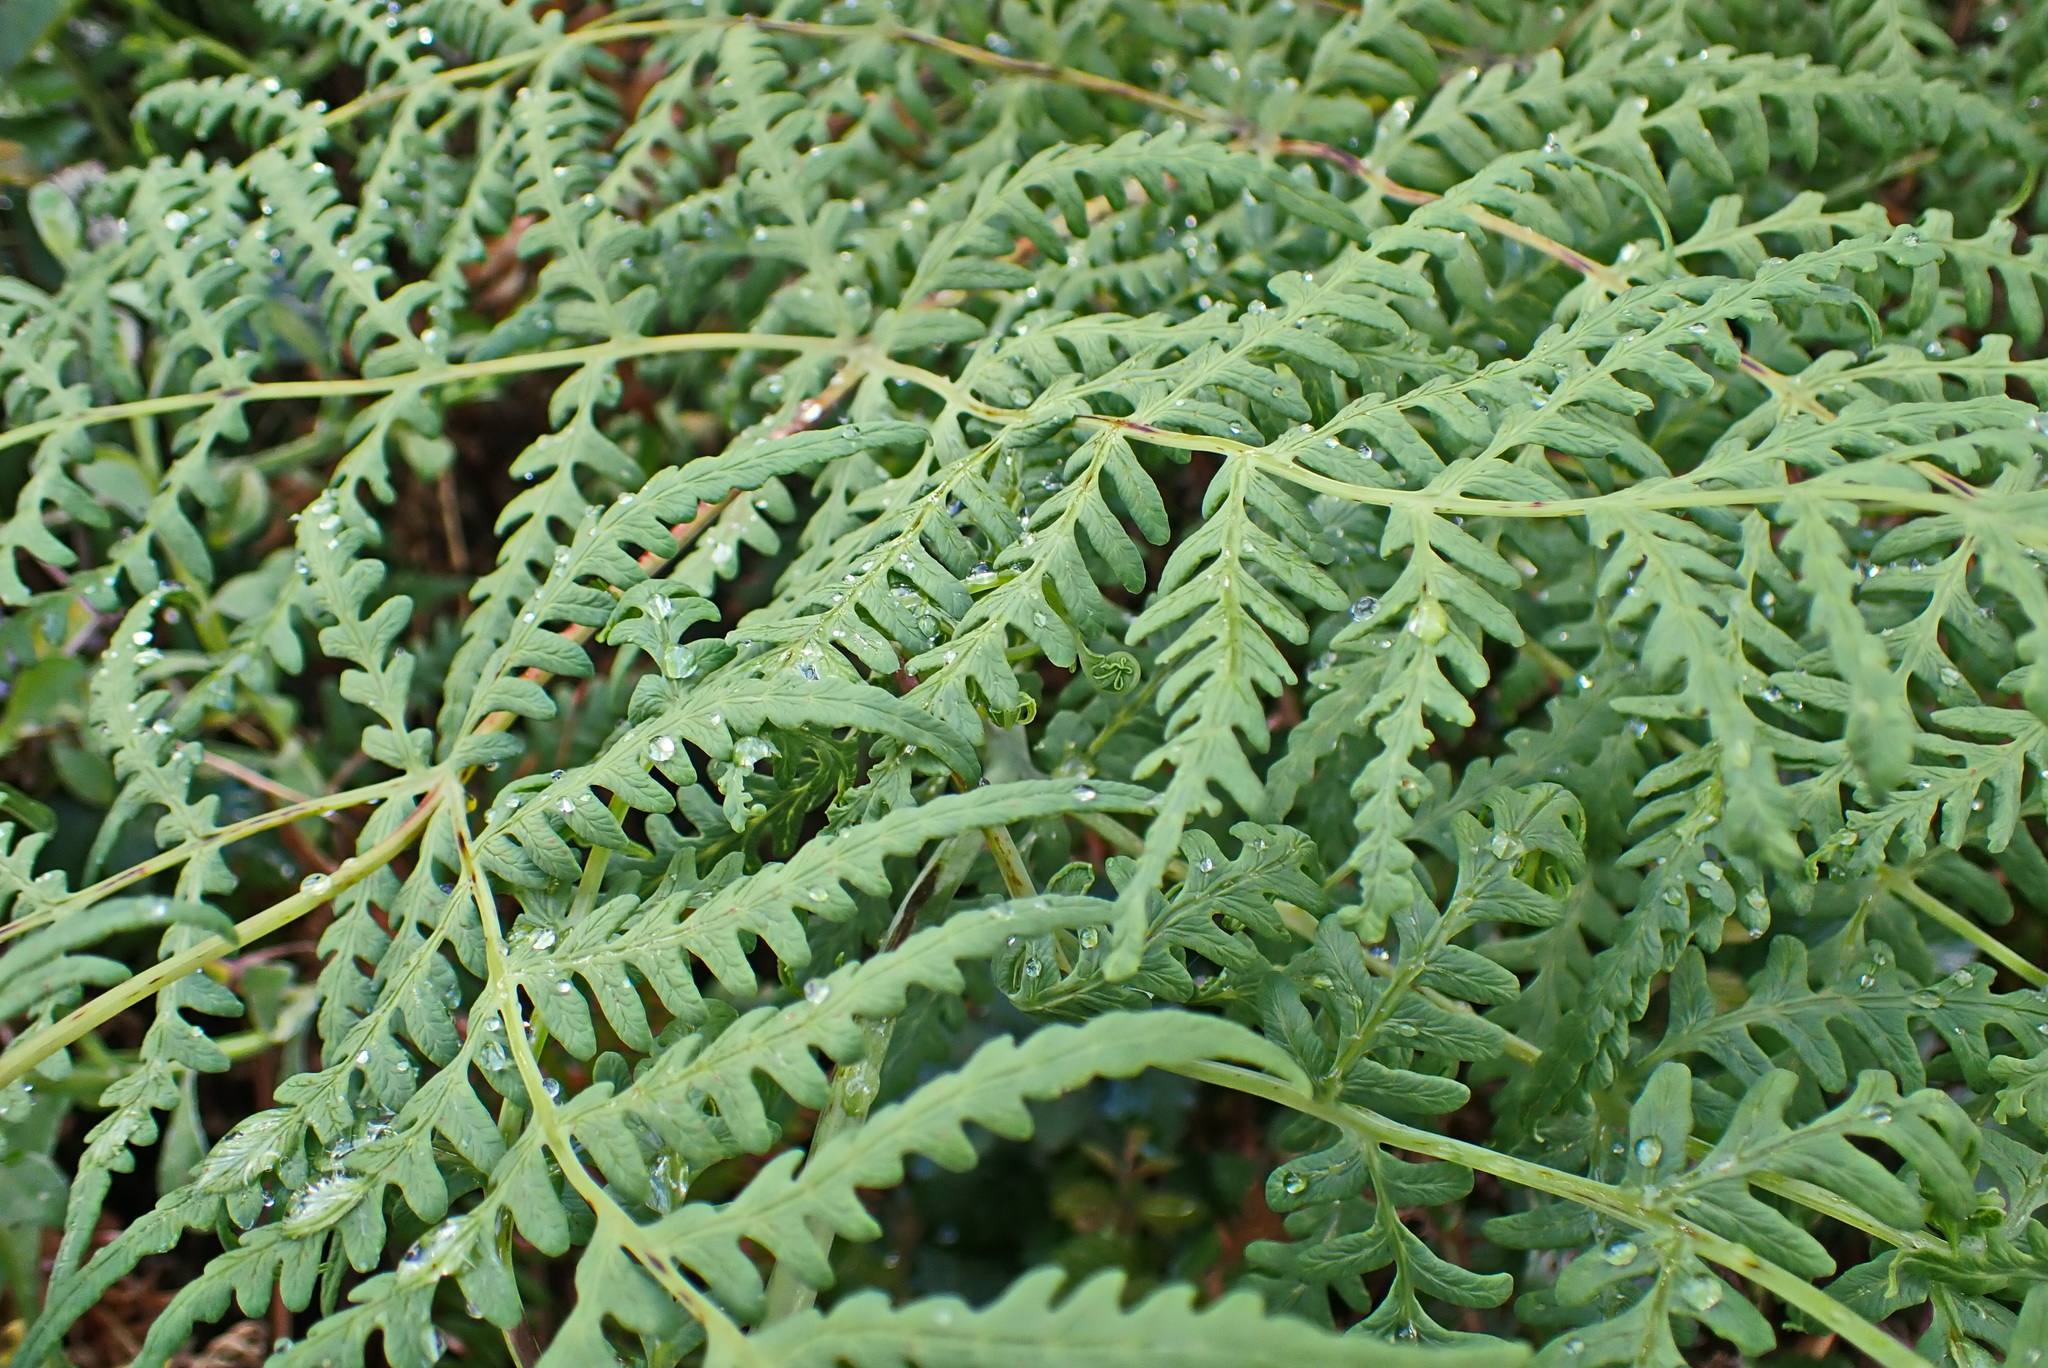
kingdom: Plantae
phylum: Tracheophyta
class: Polypodiopsida
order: Polypodiales
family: Dennstaedtiaceae
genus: Histiopteris
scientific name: Histiopteris incisa
